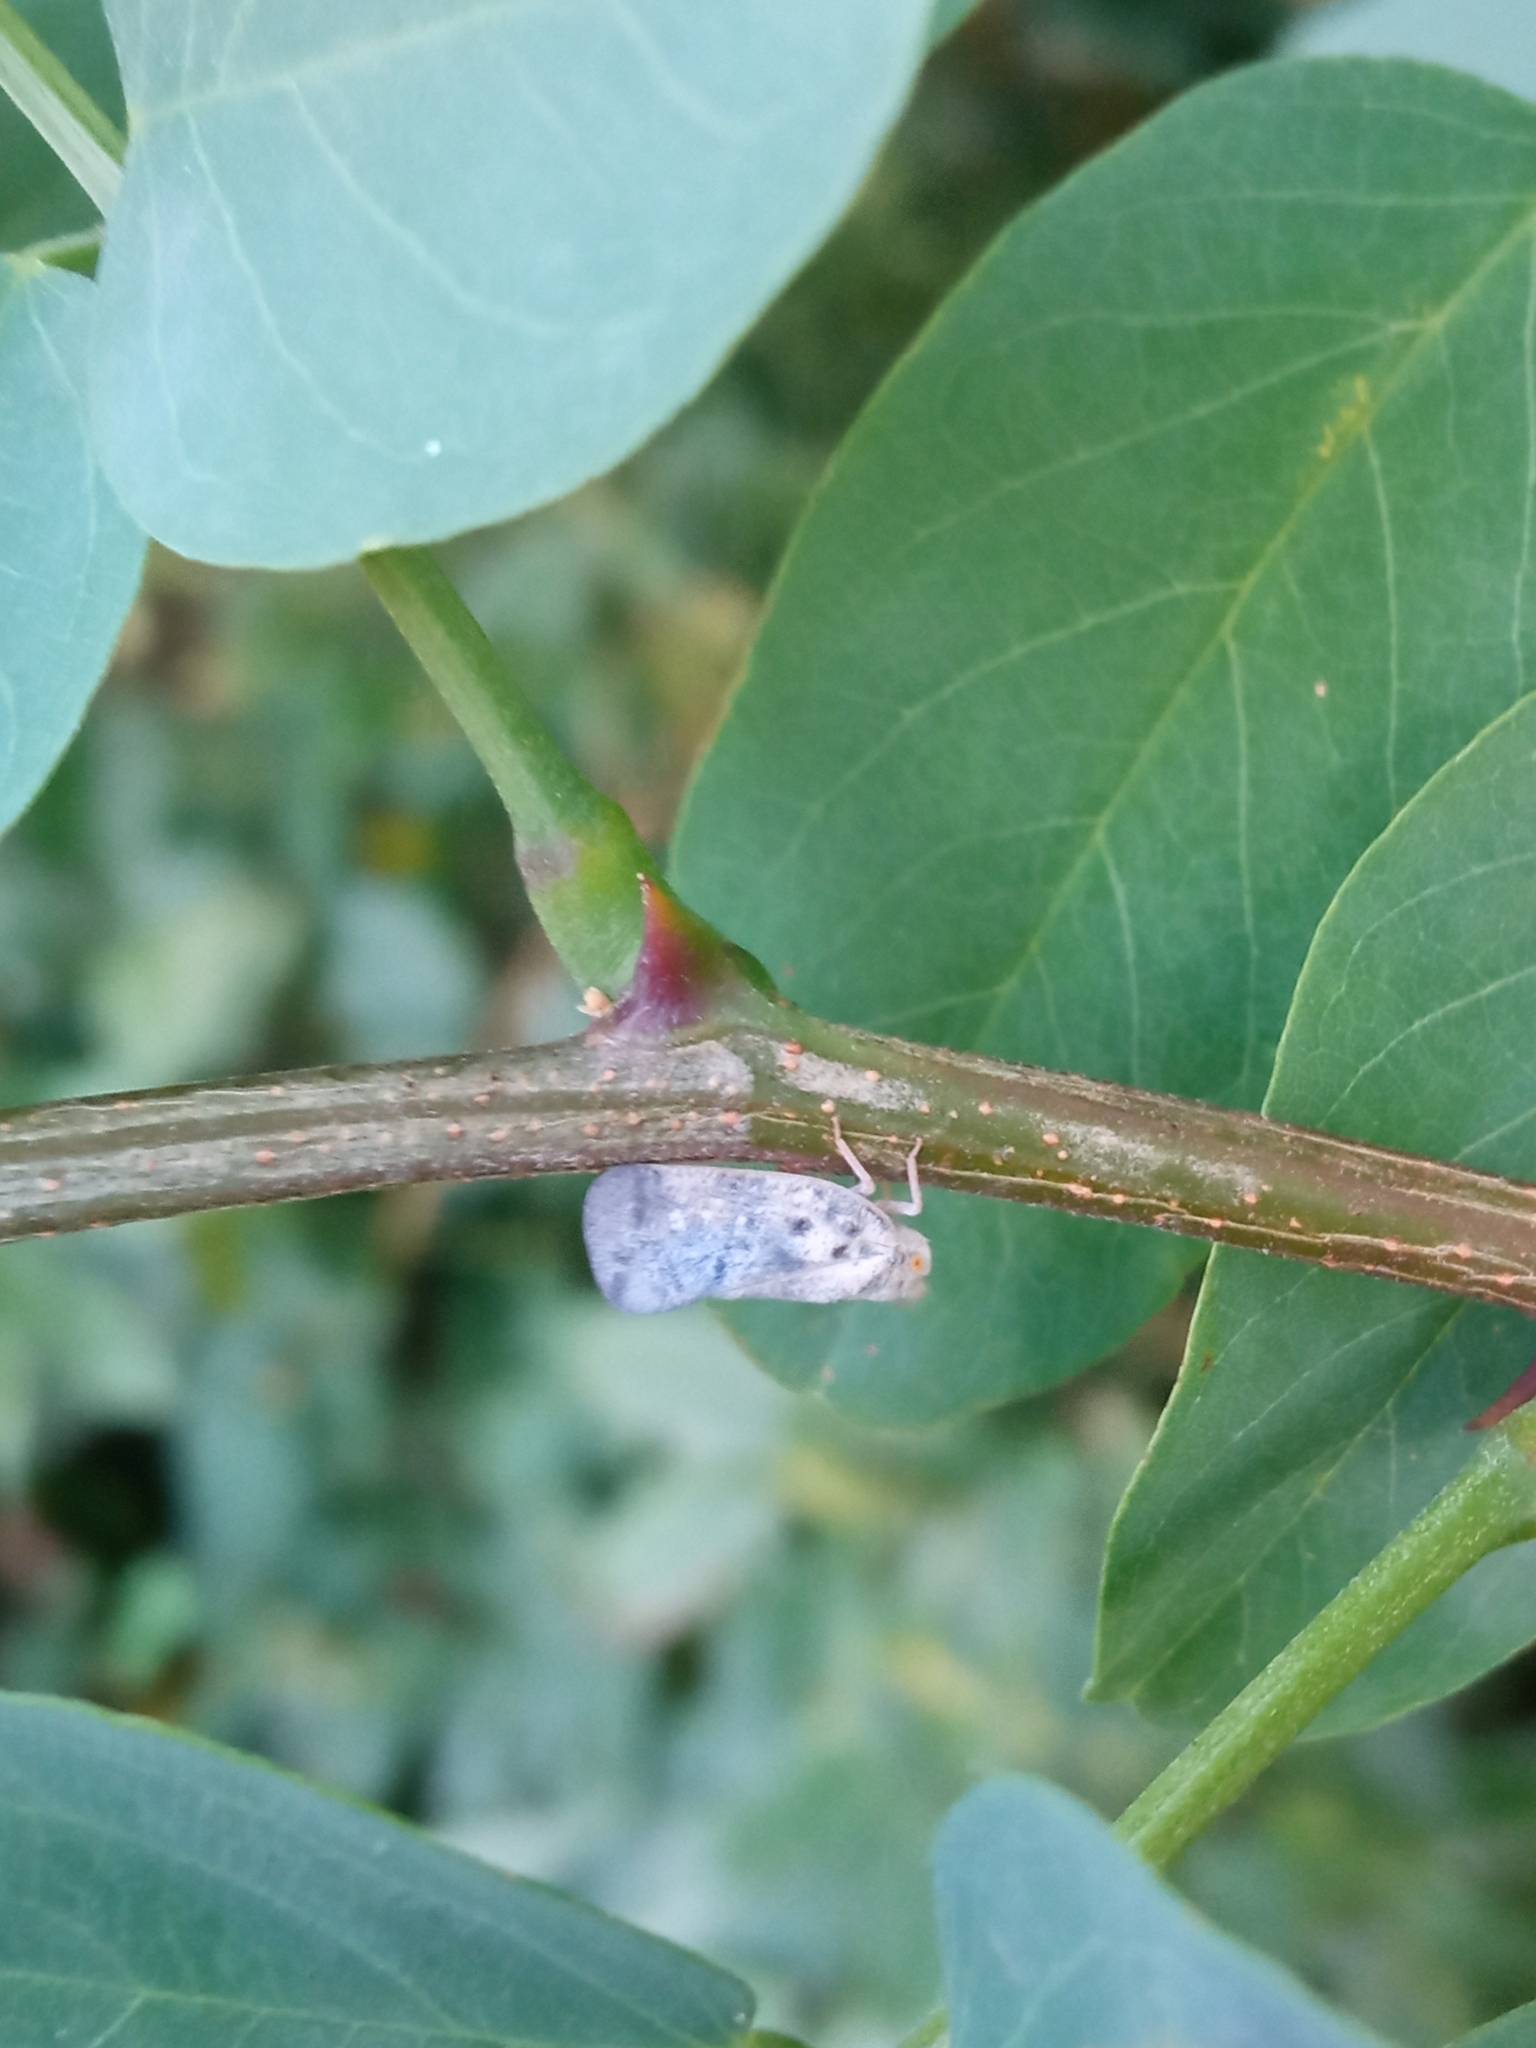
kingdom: Animalia
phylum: Arthropoda
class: Insecta
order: Hemiptera
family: Flatidae
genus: Metcalfa
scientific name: Metcalfa pruinosa
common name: Citrus flatid planthopper
